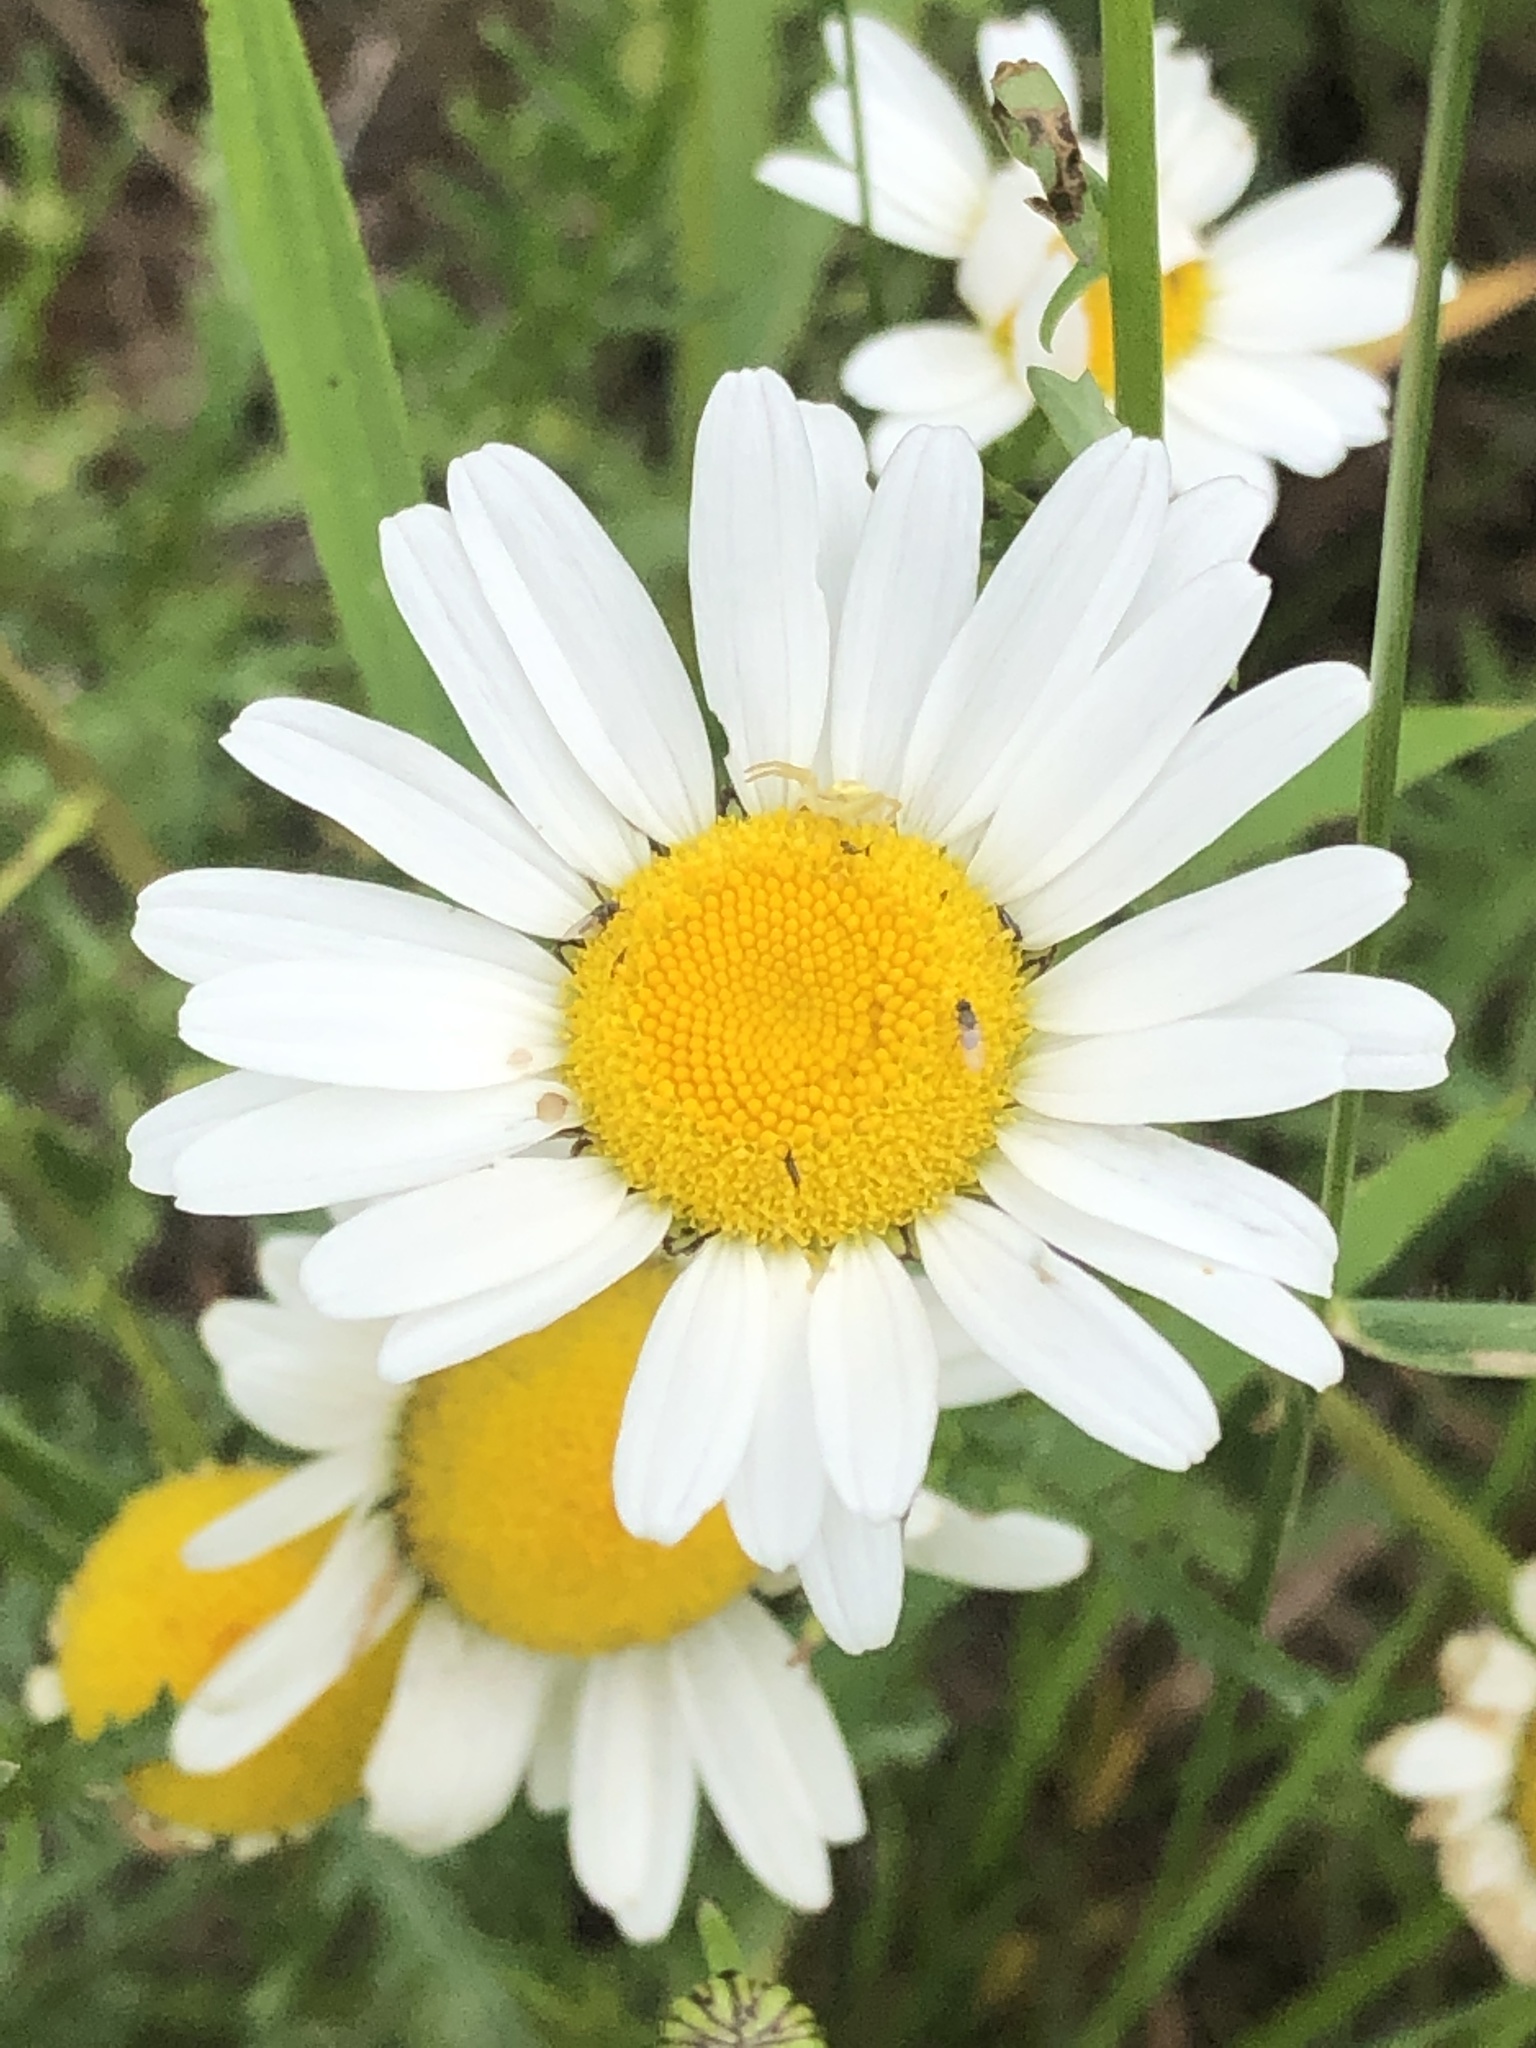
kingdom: Plantae
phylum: Tracheophyta
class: Magnoliopsida
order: Asterales
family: Asteraceae
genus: Leucanthemum
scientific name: Leucanthemum vulgare
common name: Oxeye daisy
